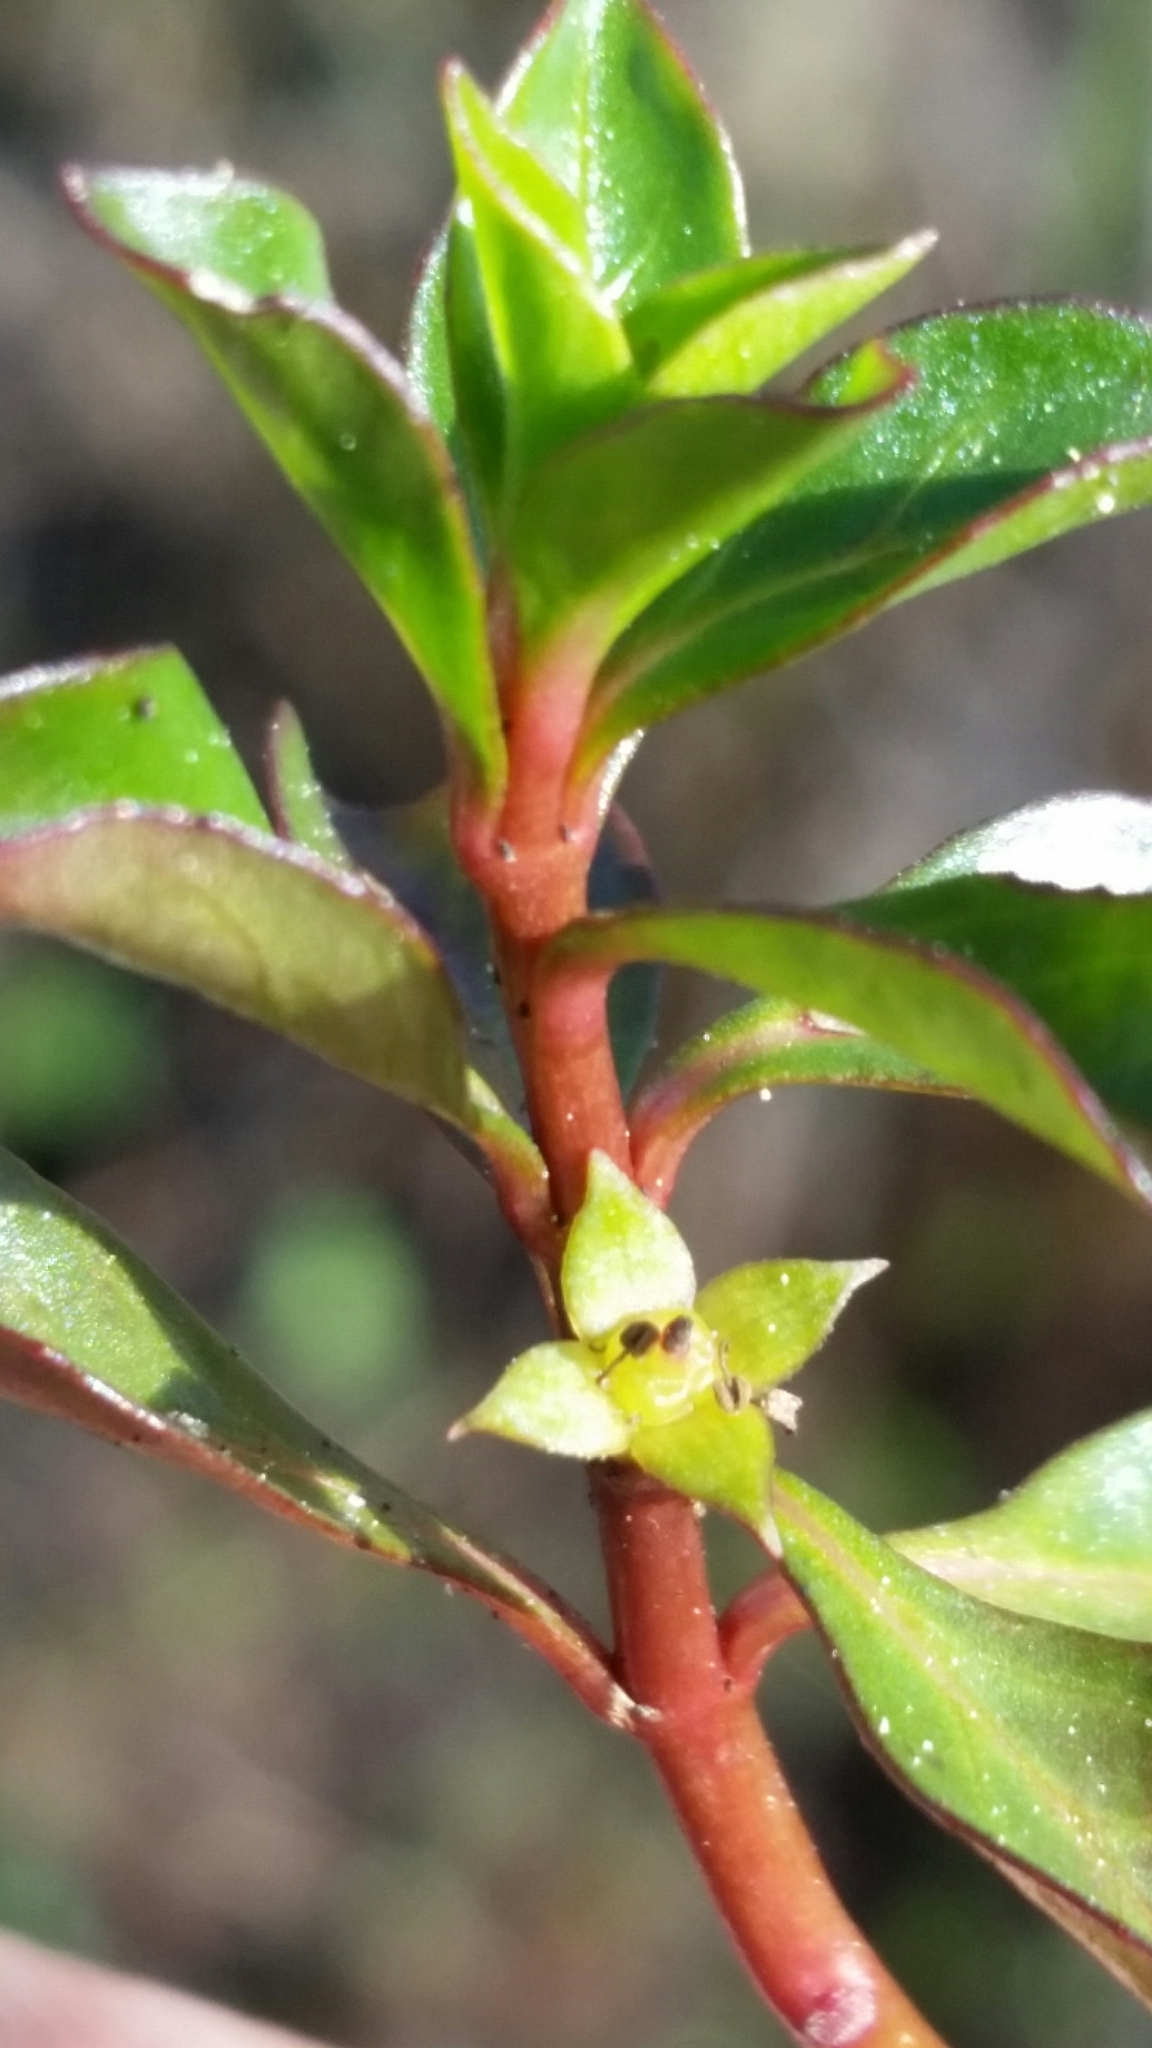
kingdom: Plantae
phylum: Tracheophyta
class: Magnoliopsida
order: Myrtales
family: Onagraceae
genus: Ludwigia
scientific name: Ludwigia repens
